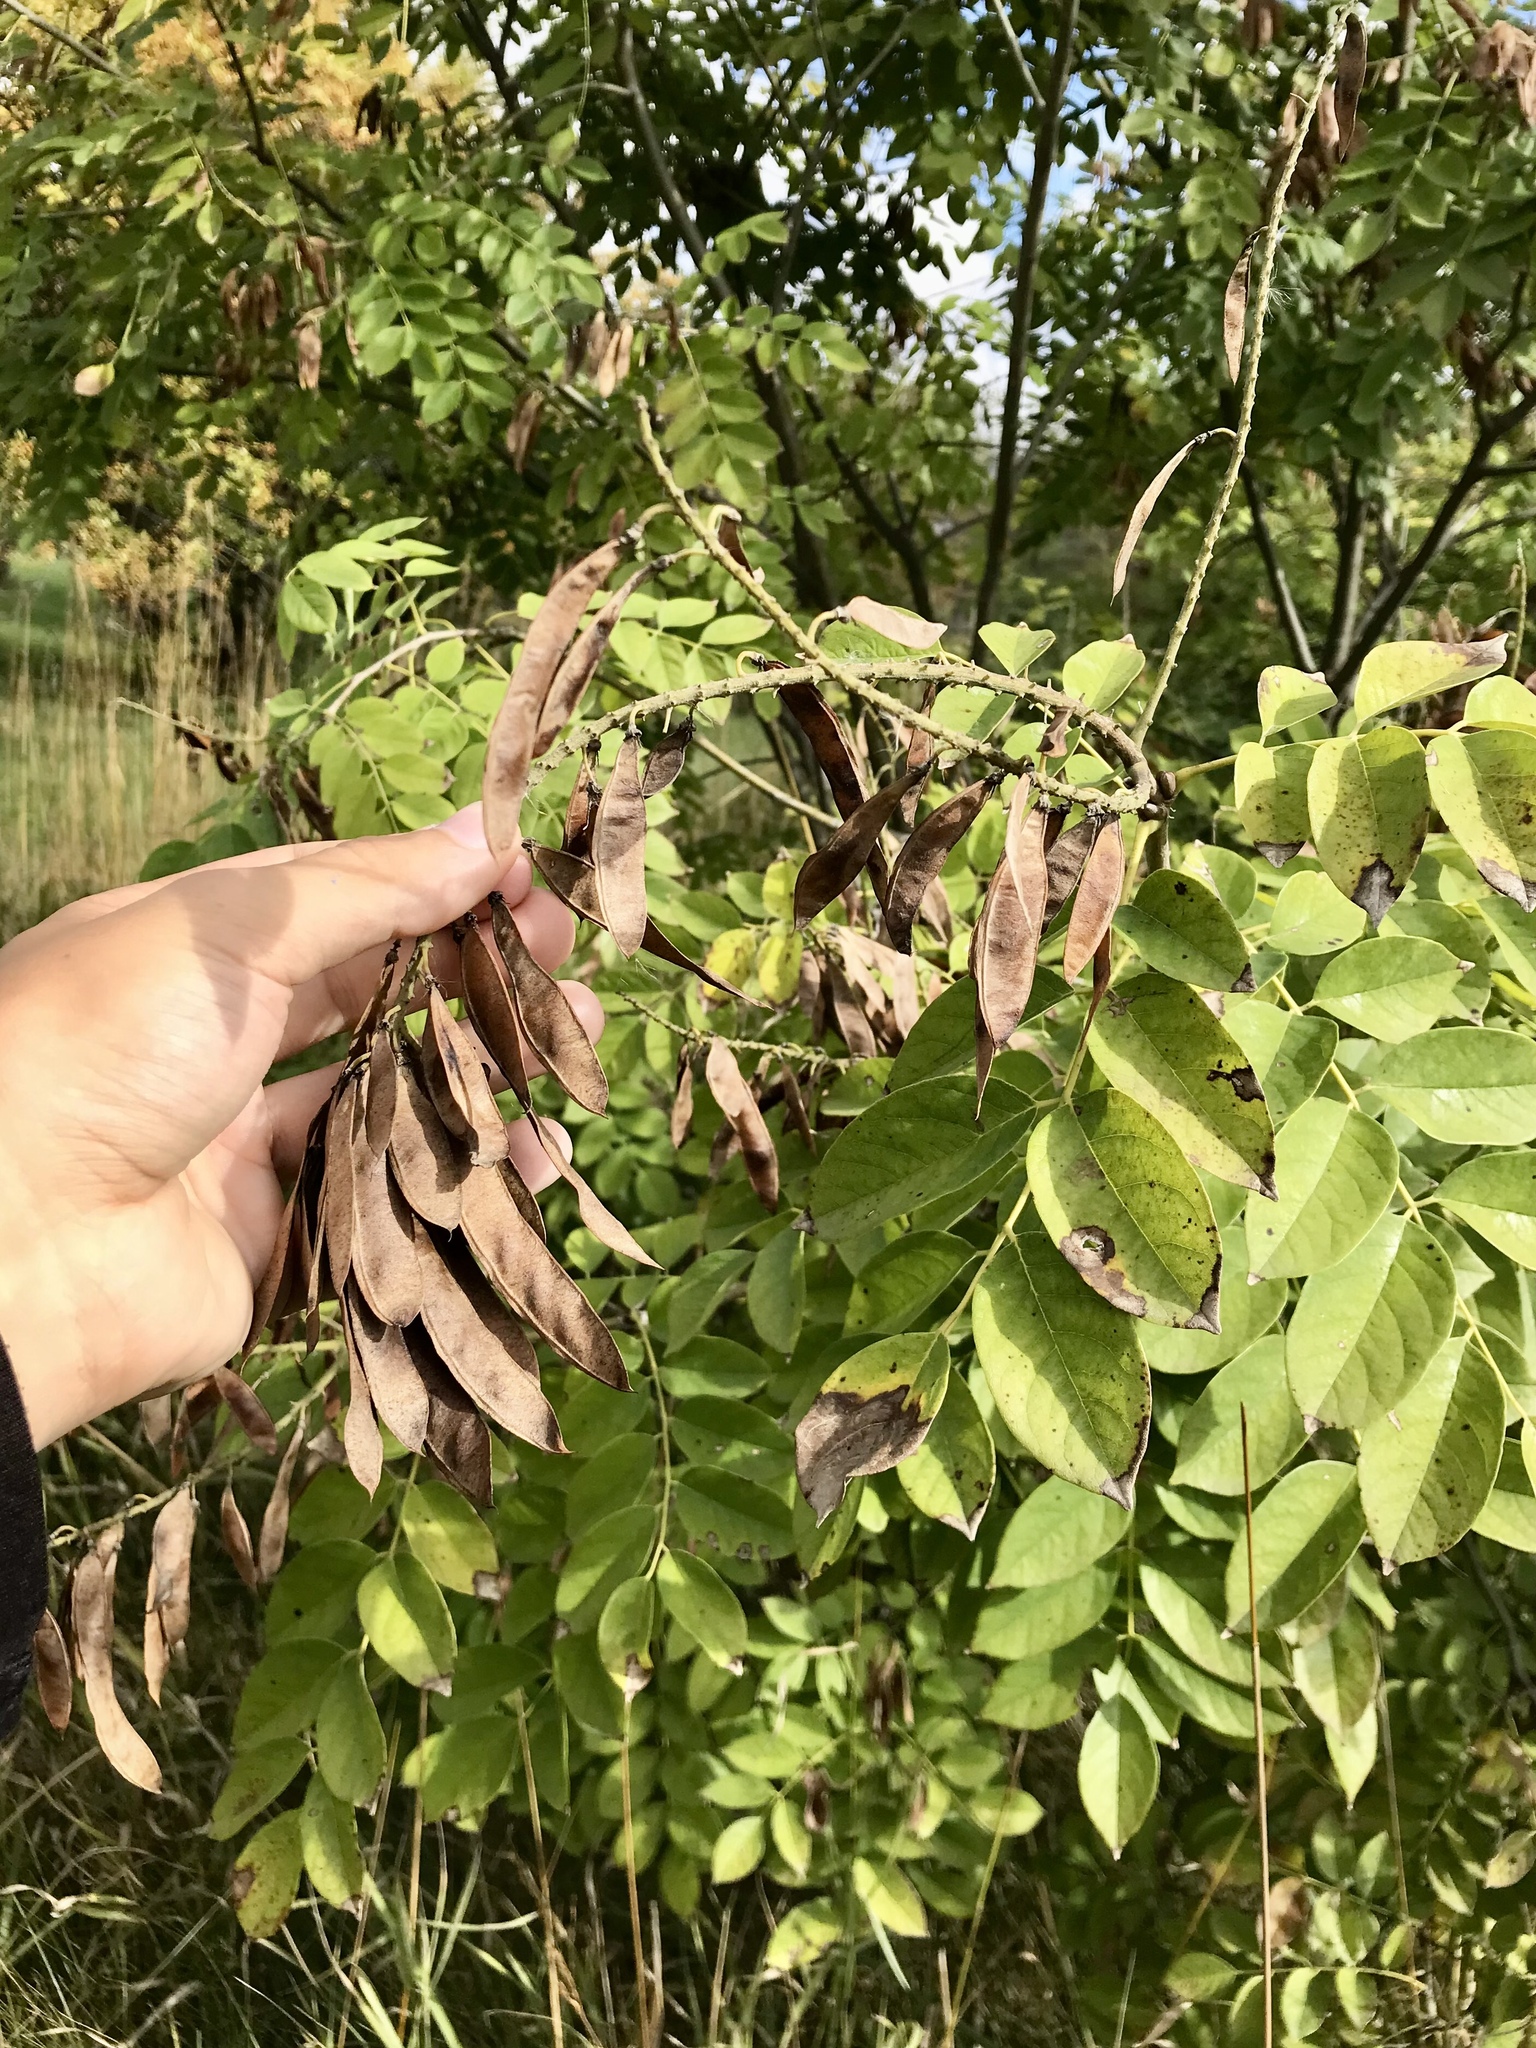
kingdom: Plantae
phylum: Tracheophyta
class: Magnoliopsida
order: Fabales
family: Fabaceae
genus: Maackia
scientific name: Maackia amurensis
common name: Amur maackia
